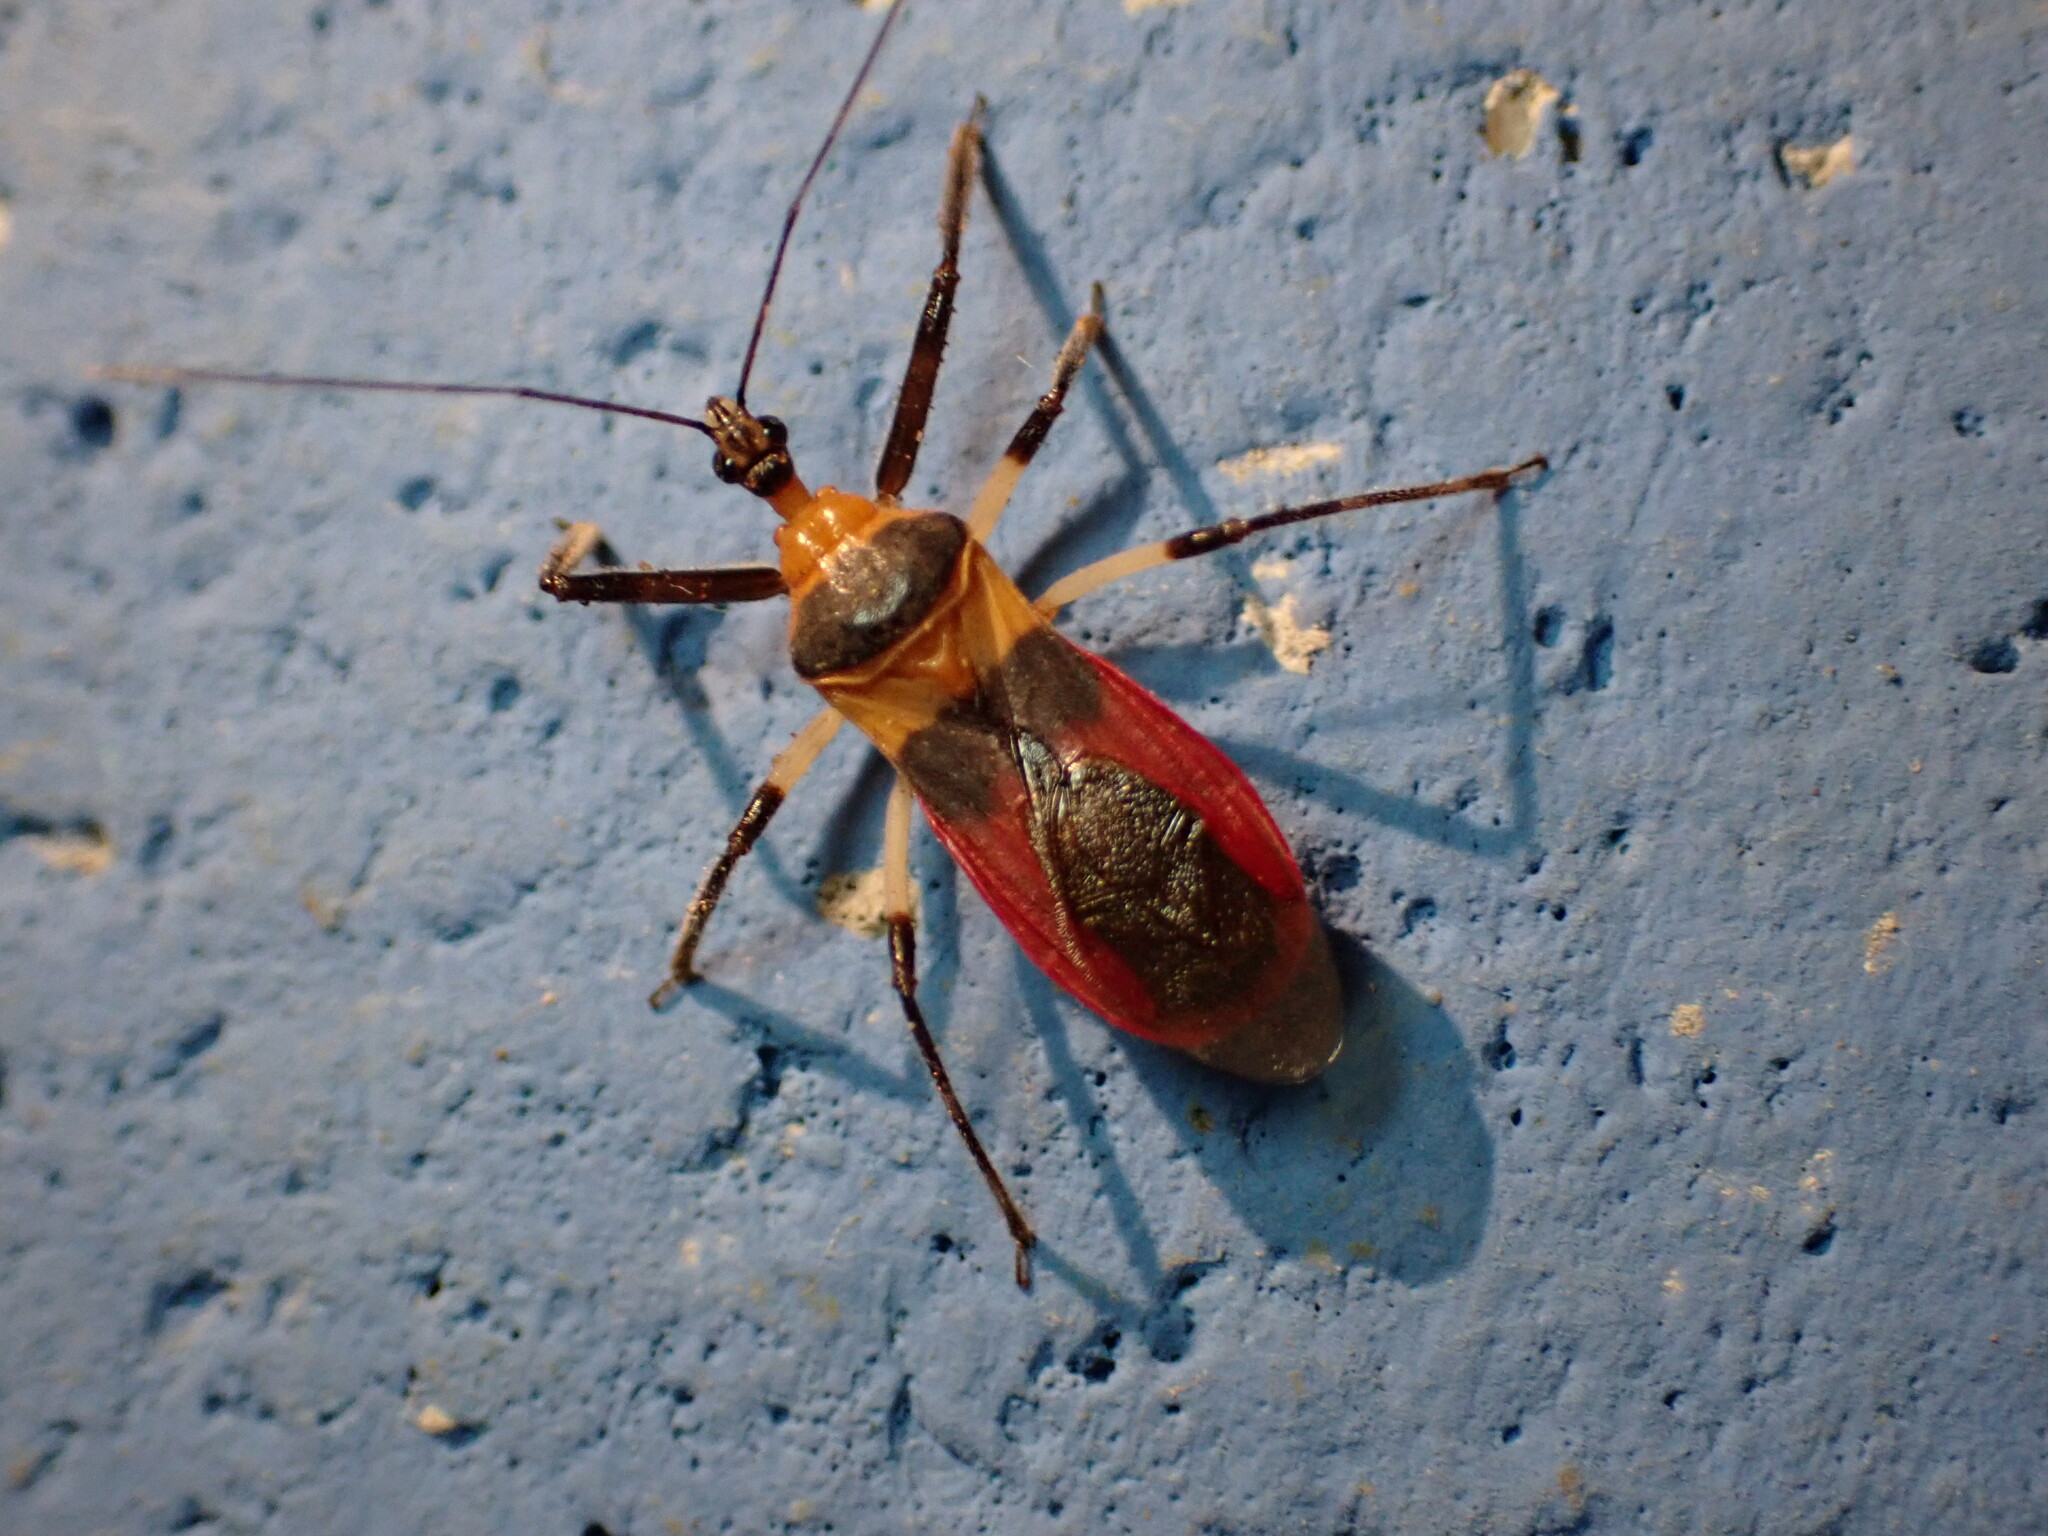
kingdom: Animalia
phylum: Arthropoda
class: Insecta
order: Hemiptera
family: Reduviidae
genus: Castolus
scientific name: Castolus tricolor
